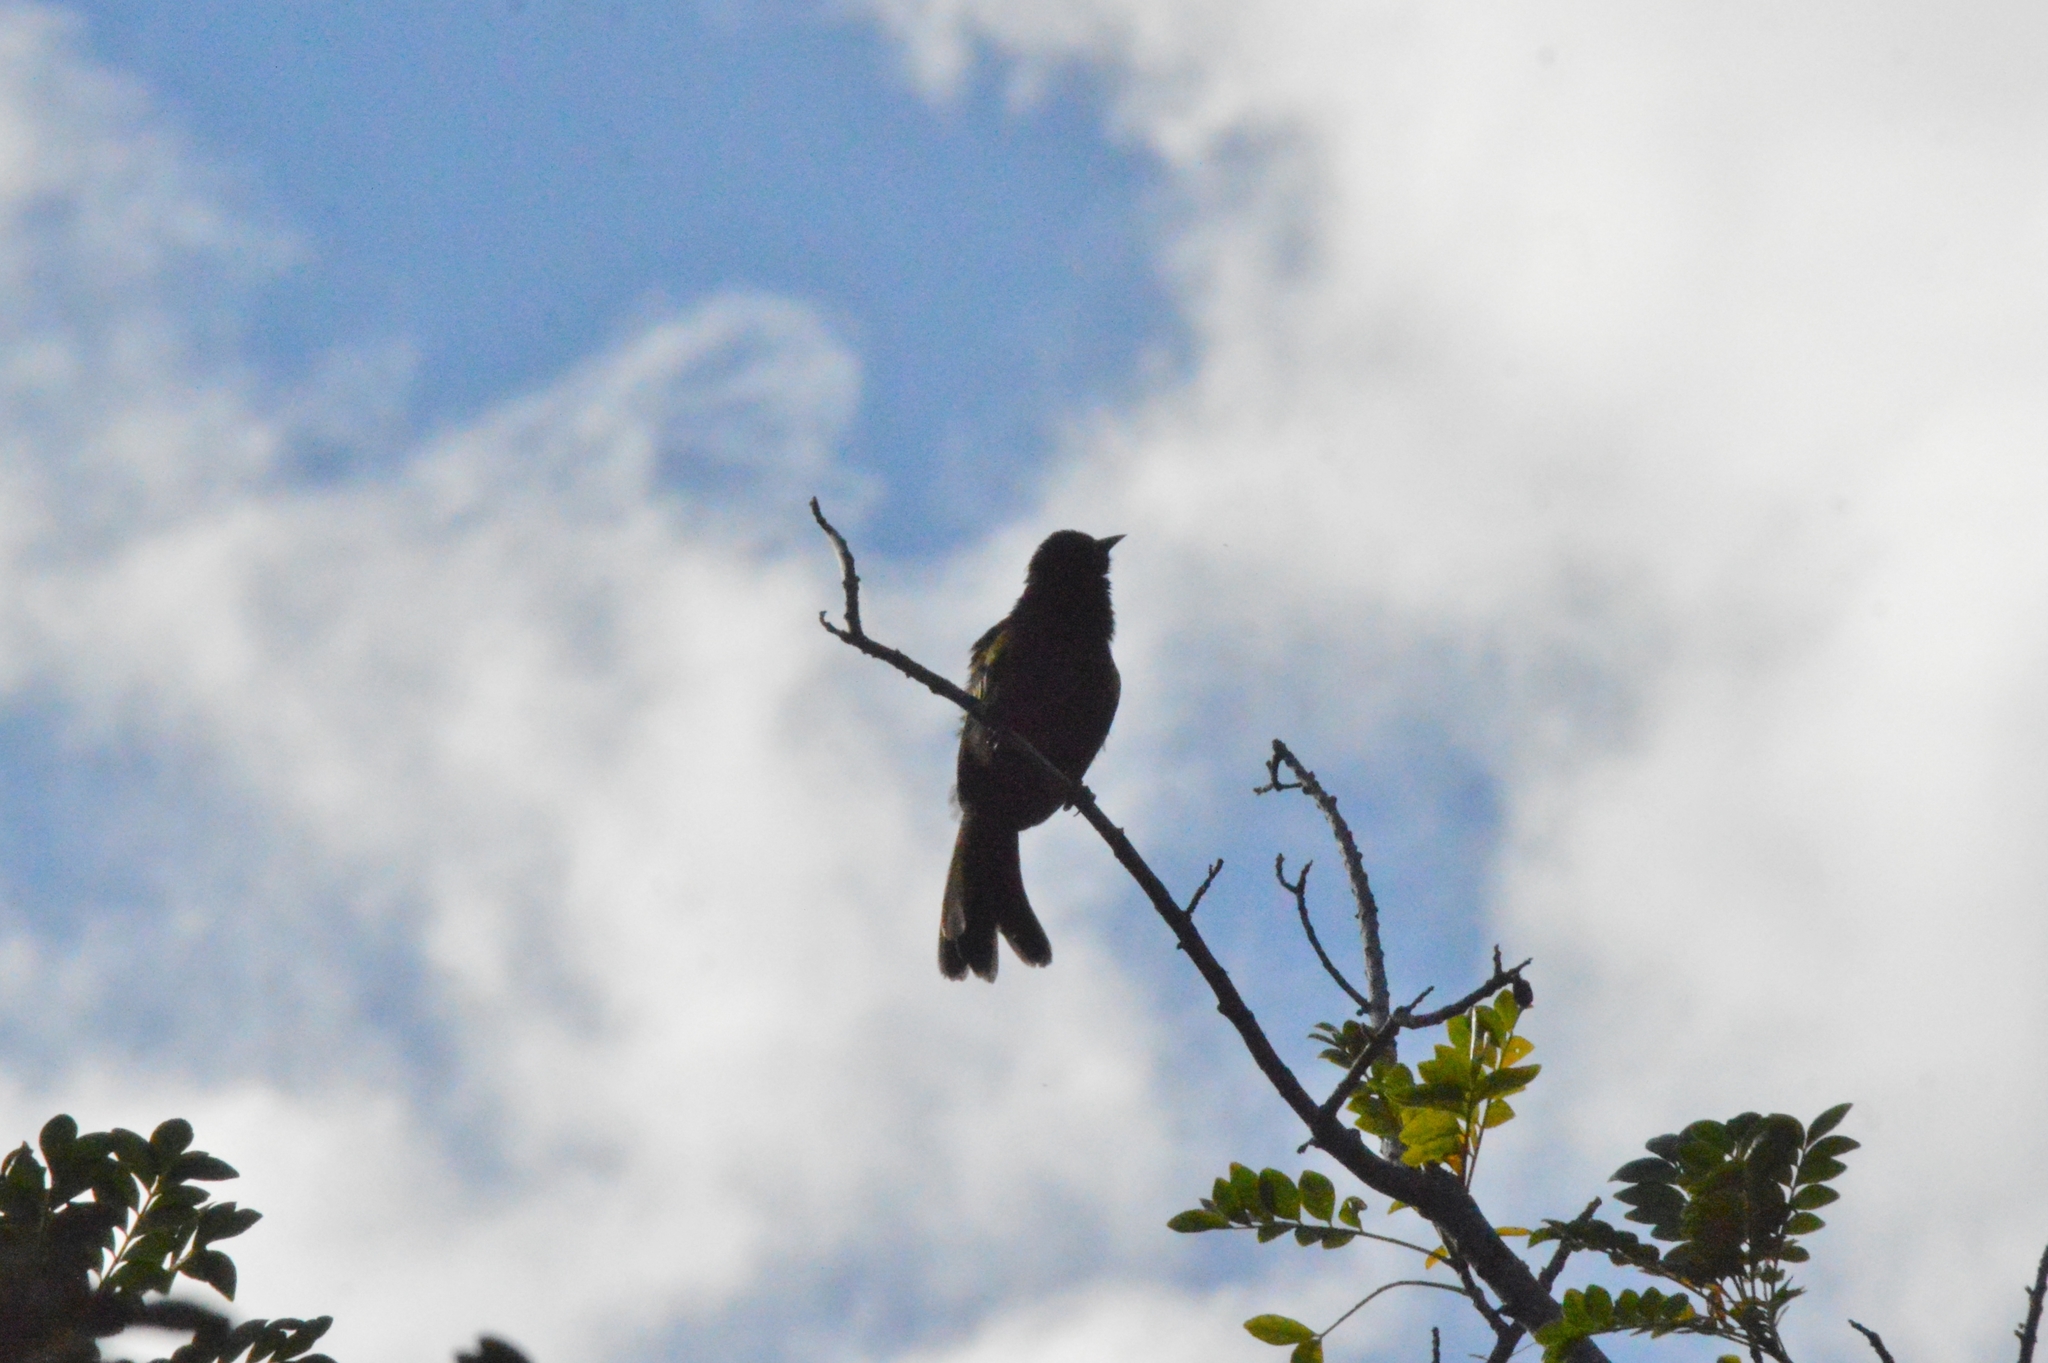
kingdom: Animalia
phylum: Chordata
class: Aves
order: Passeriformes
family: Icteridae
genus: Icterus
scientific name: Icterus cayanensis
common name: Epaulet oriole
